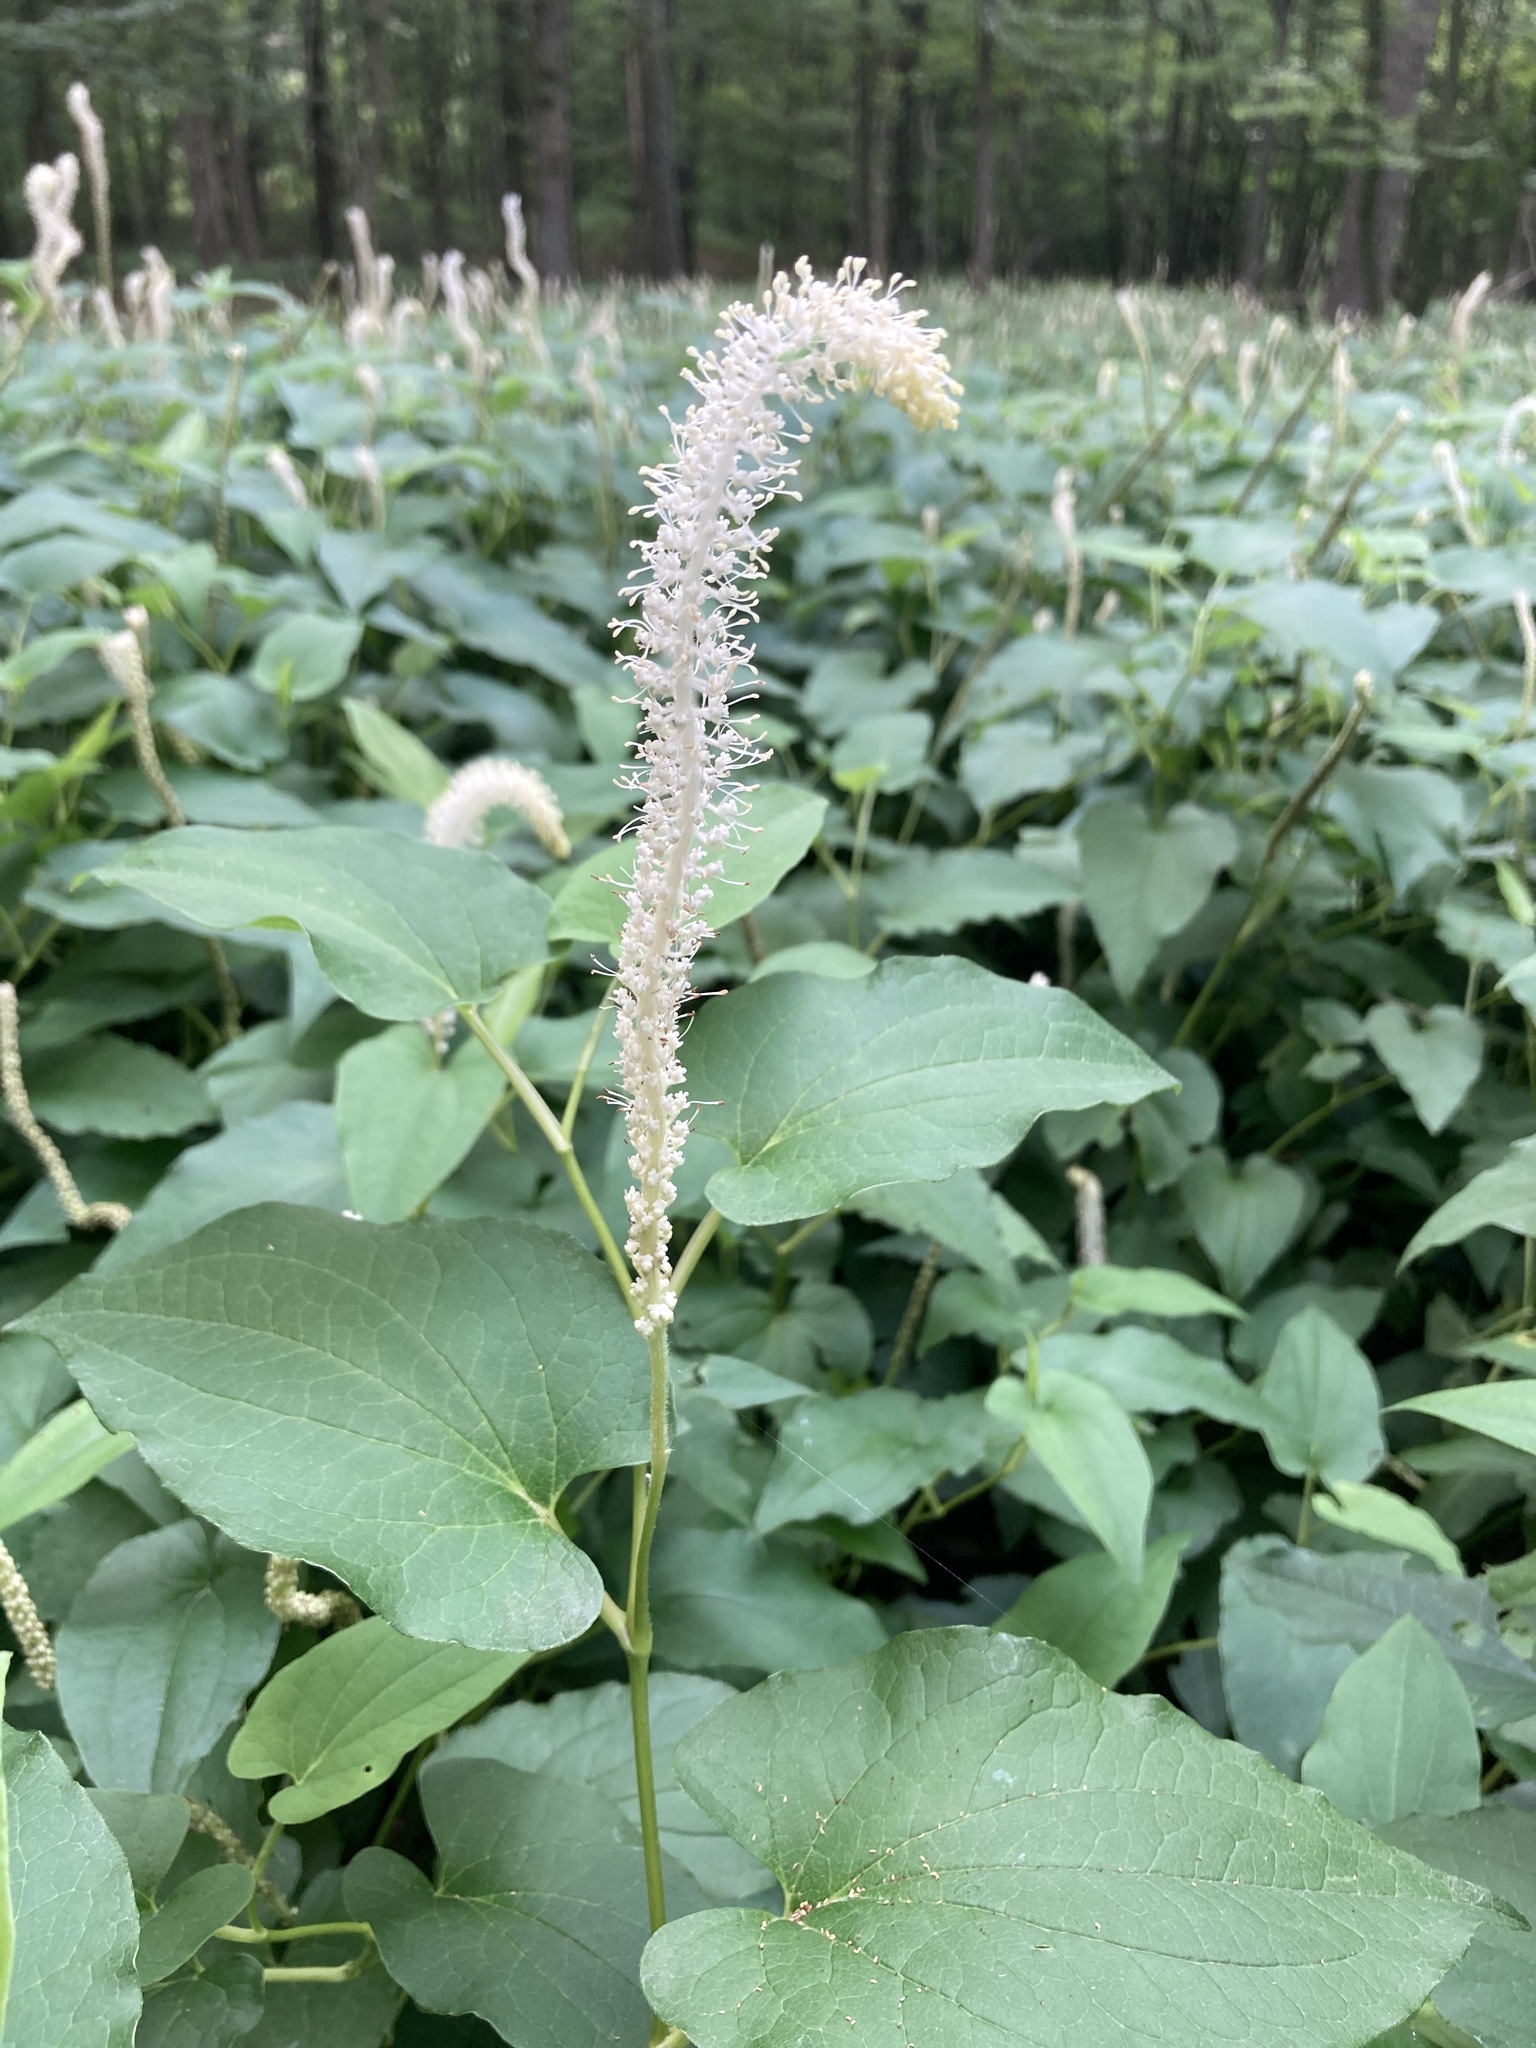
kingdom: Plantae
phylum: Tracheophyta
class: Magnoliopsida
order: Piperales
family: Saururaceae
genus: Saururus
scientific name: Saururus cernuus
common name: Lizard's-tail
